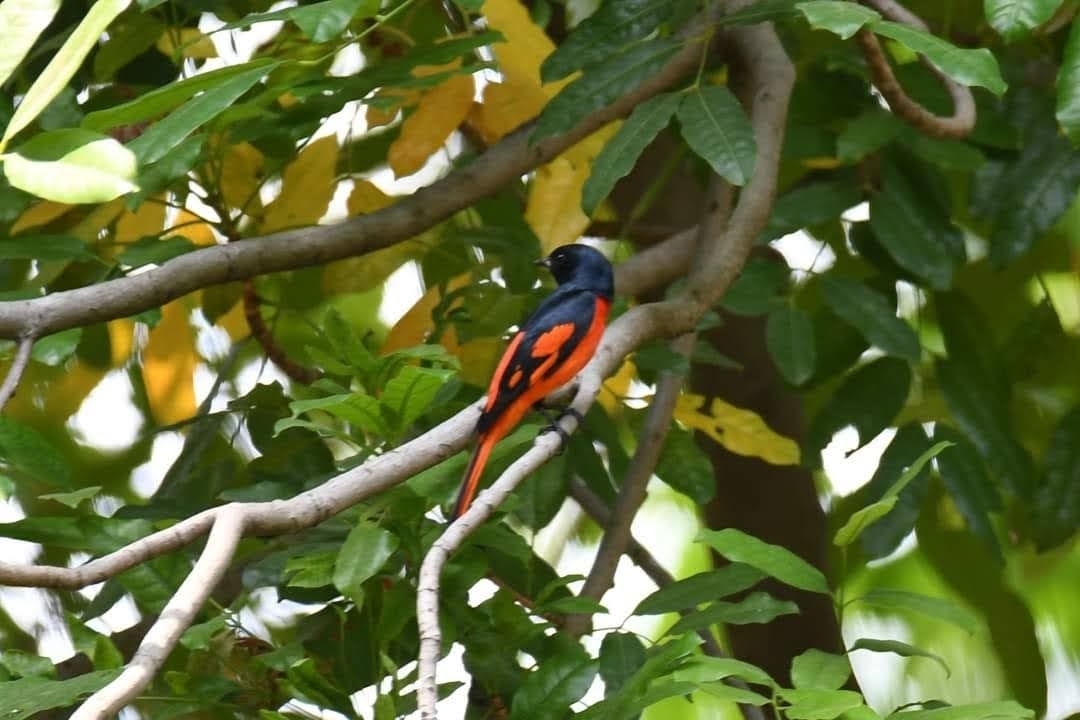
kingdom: Animalia
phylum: Chordata
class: Aves
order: Passeriformes
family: Campephagidae
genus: Pericrocotus
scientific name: Pericrocotus speciosus
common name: Scarlet minivet
